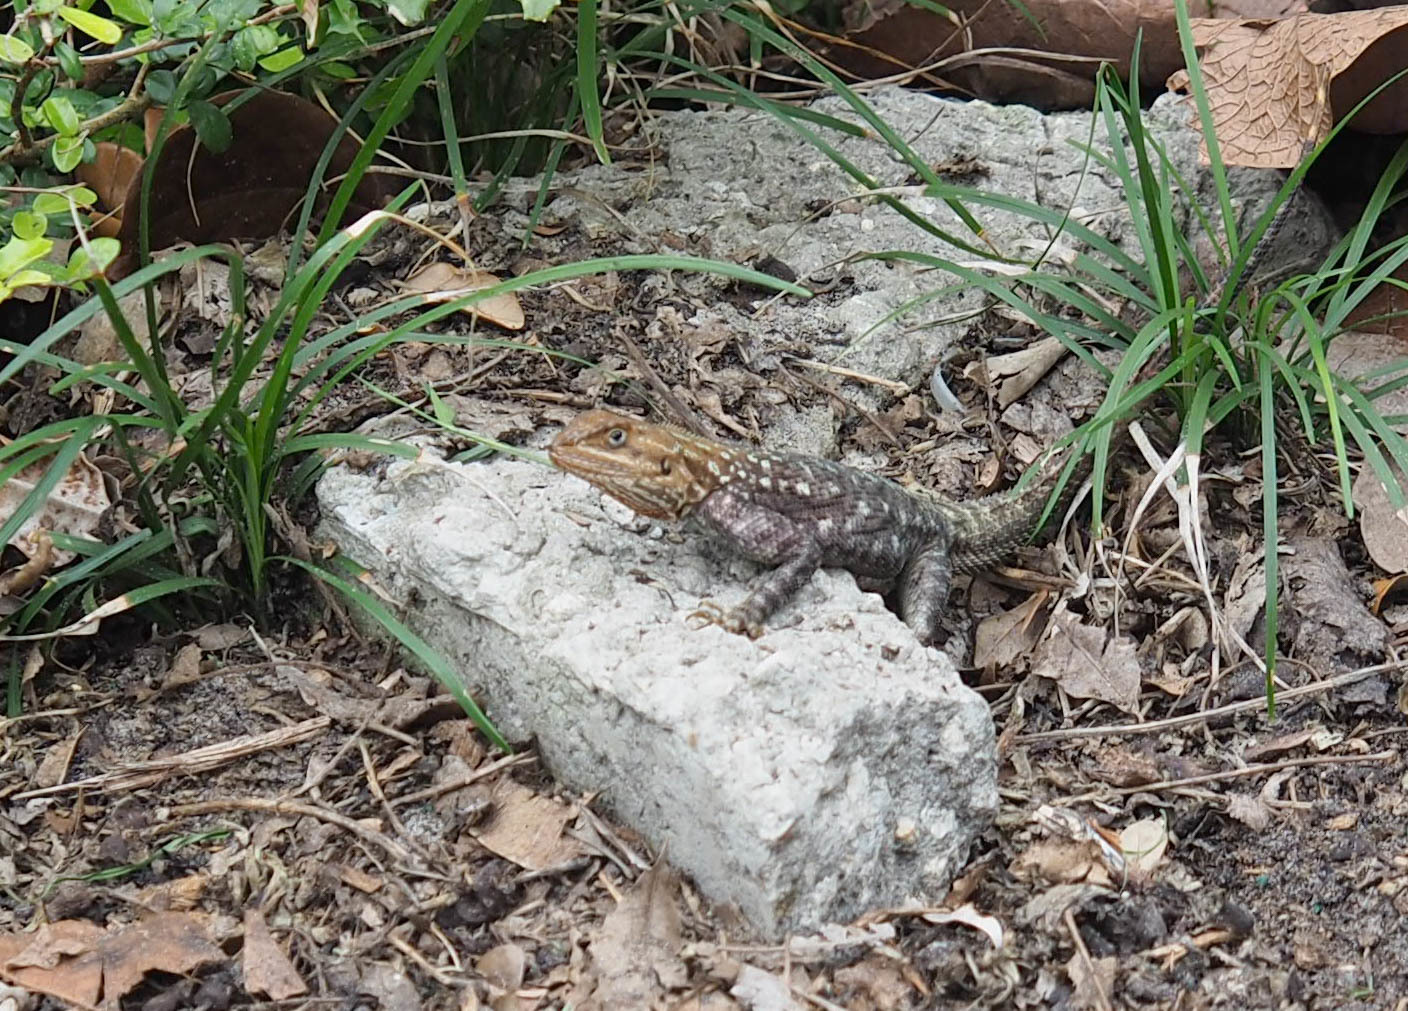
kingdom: Animalia
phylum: Chordata
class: Squamata
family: Agamidae
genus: Agama
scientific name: Agama picticauda
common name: Red-headed agama
